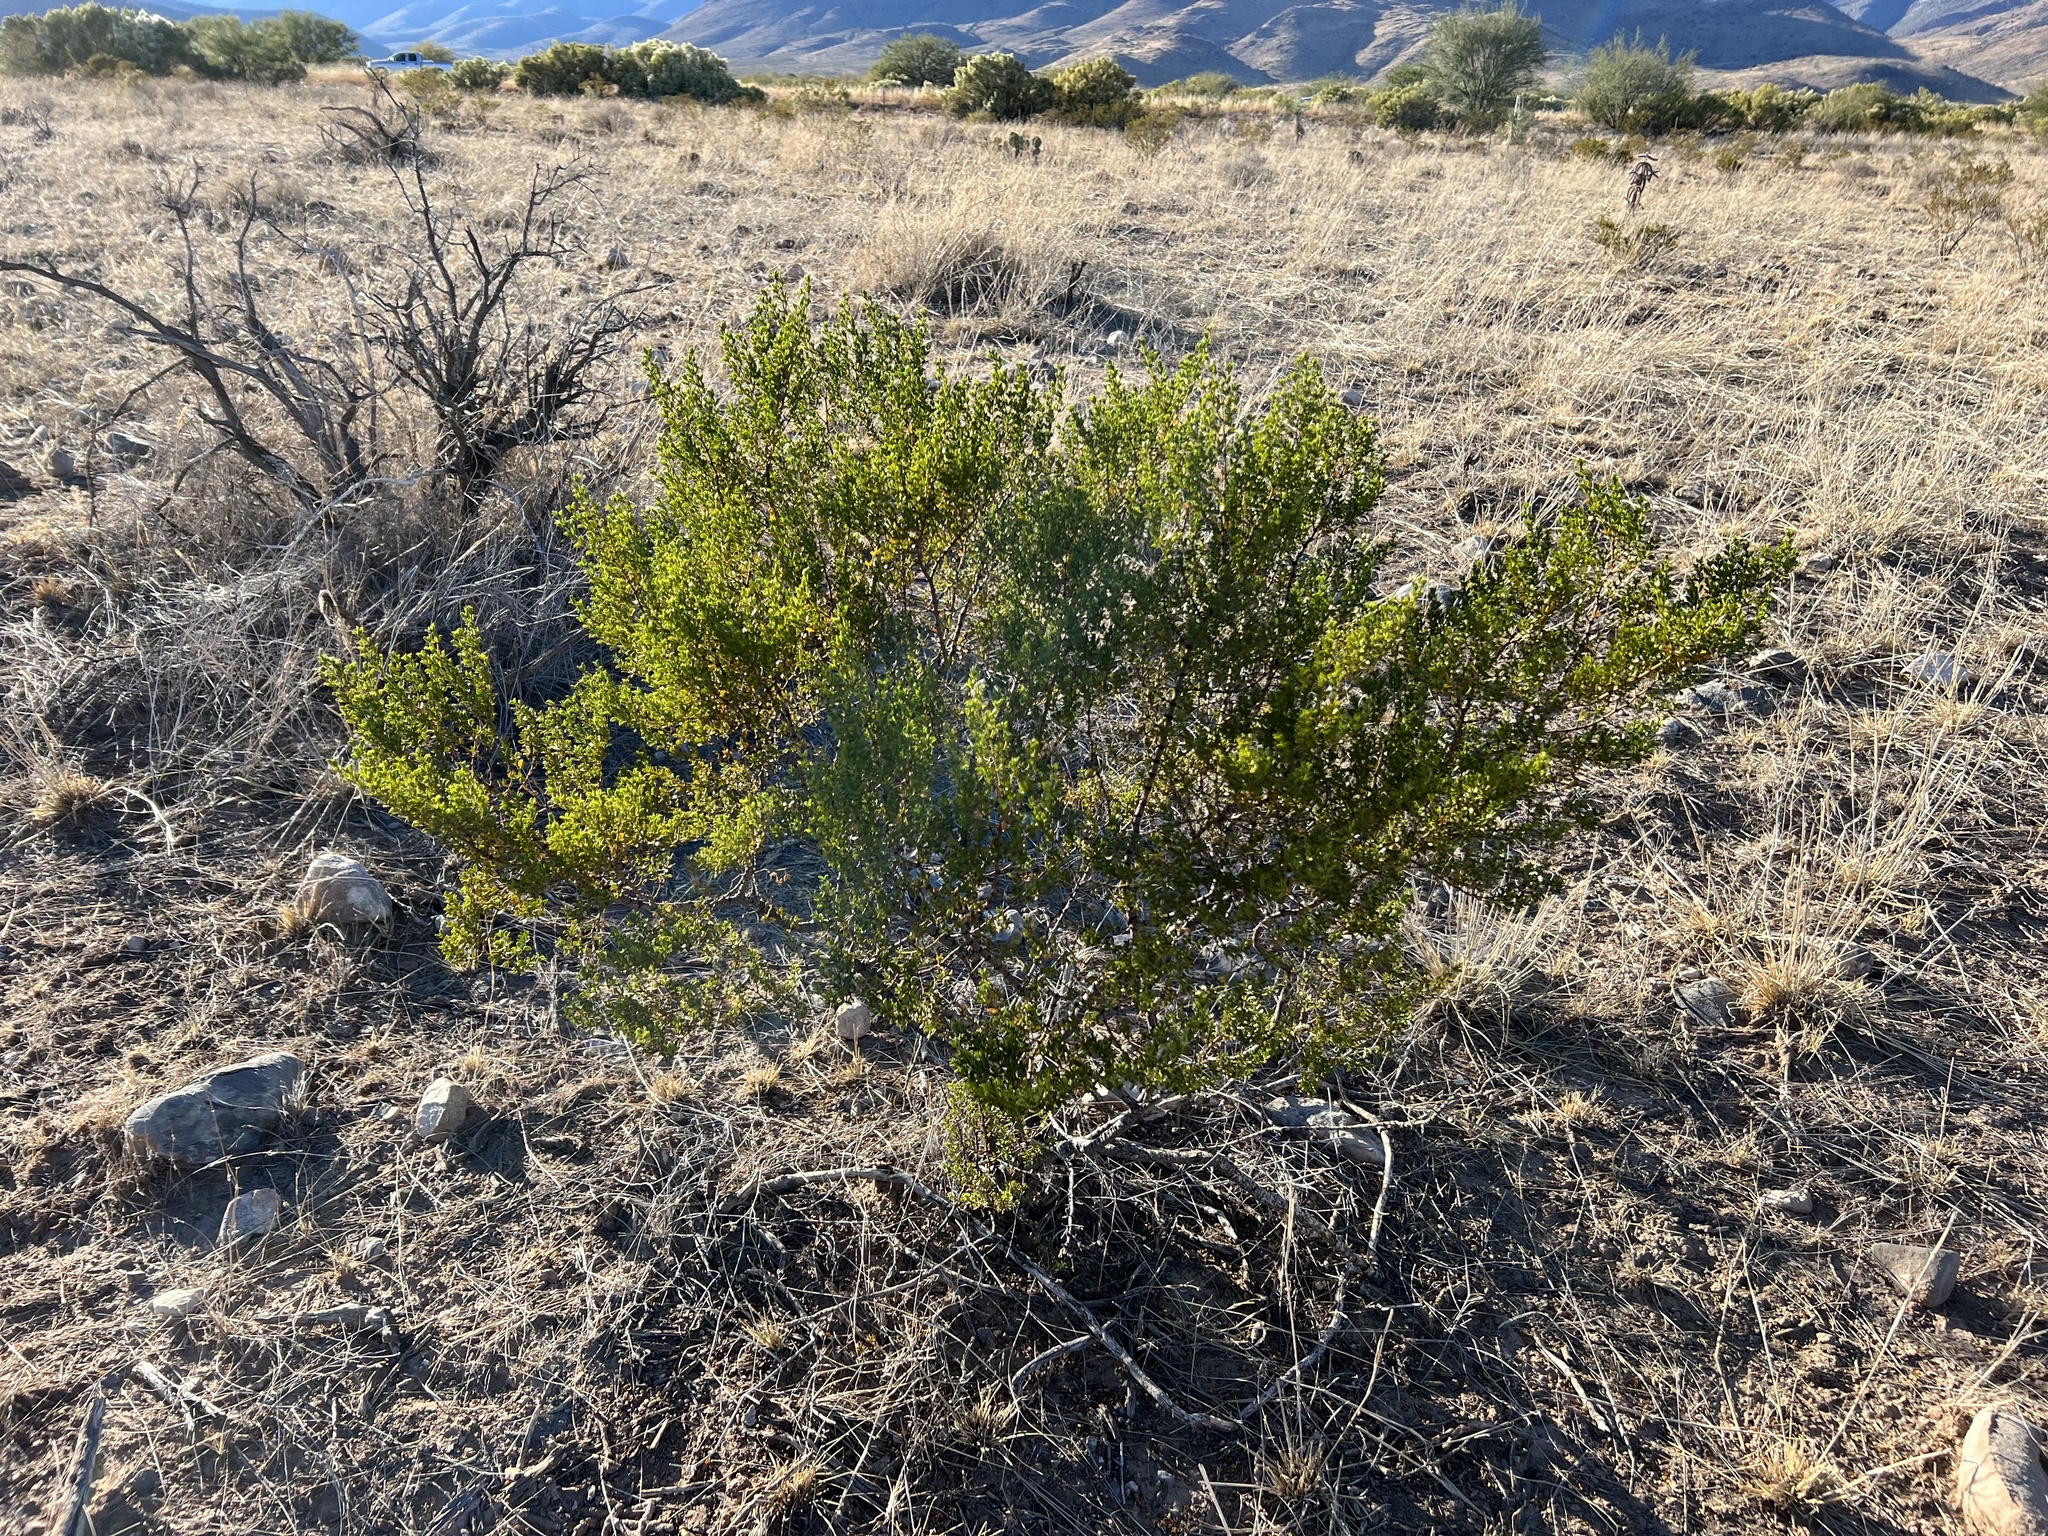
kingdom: Plantae
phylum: Tracheophyta
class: Magnoliopsida
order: Zygophyllales
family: Zygophyllaceae
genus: Larrea
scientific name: Larrea tridentata
